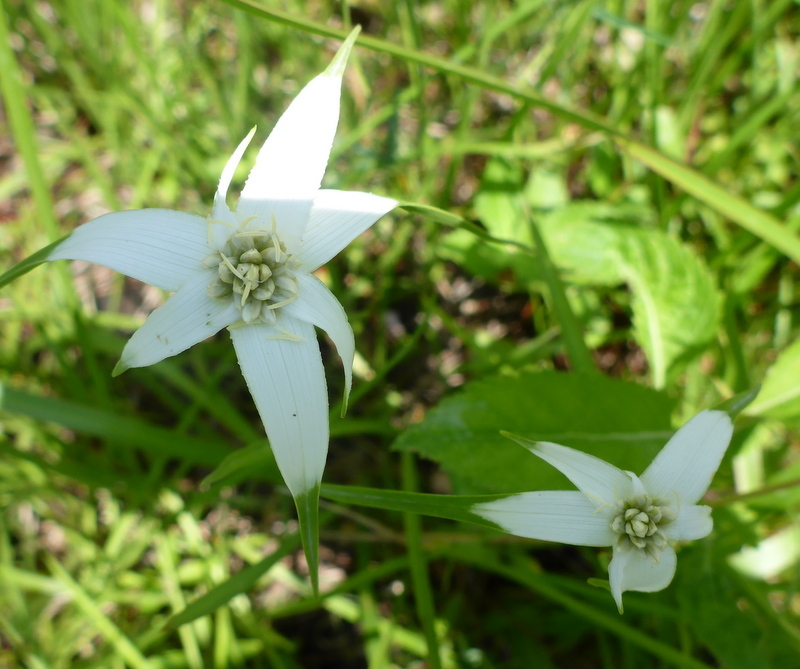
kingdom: Plantae
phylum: Tracheophyta
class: Liliopsida
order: Poales
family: Cyperaceae
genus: Rhynchospora
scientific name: Rhynchospora latifolia
